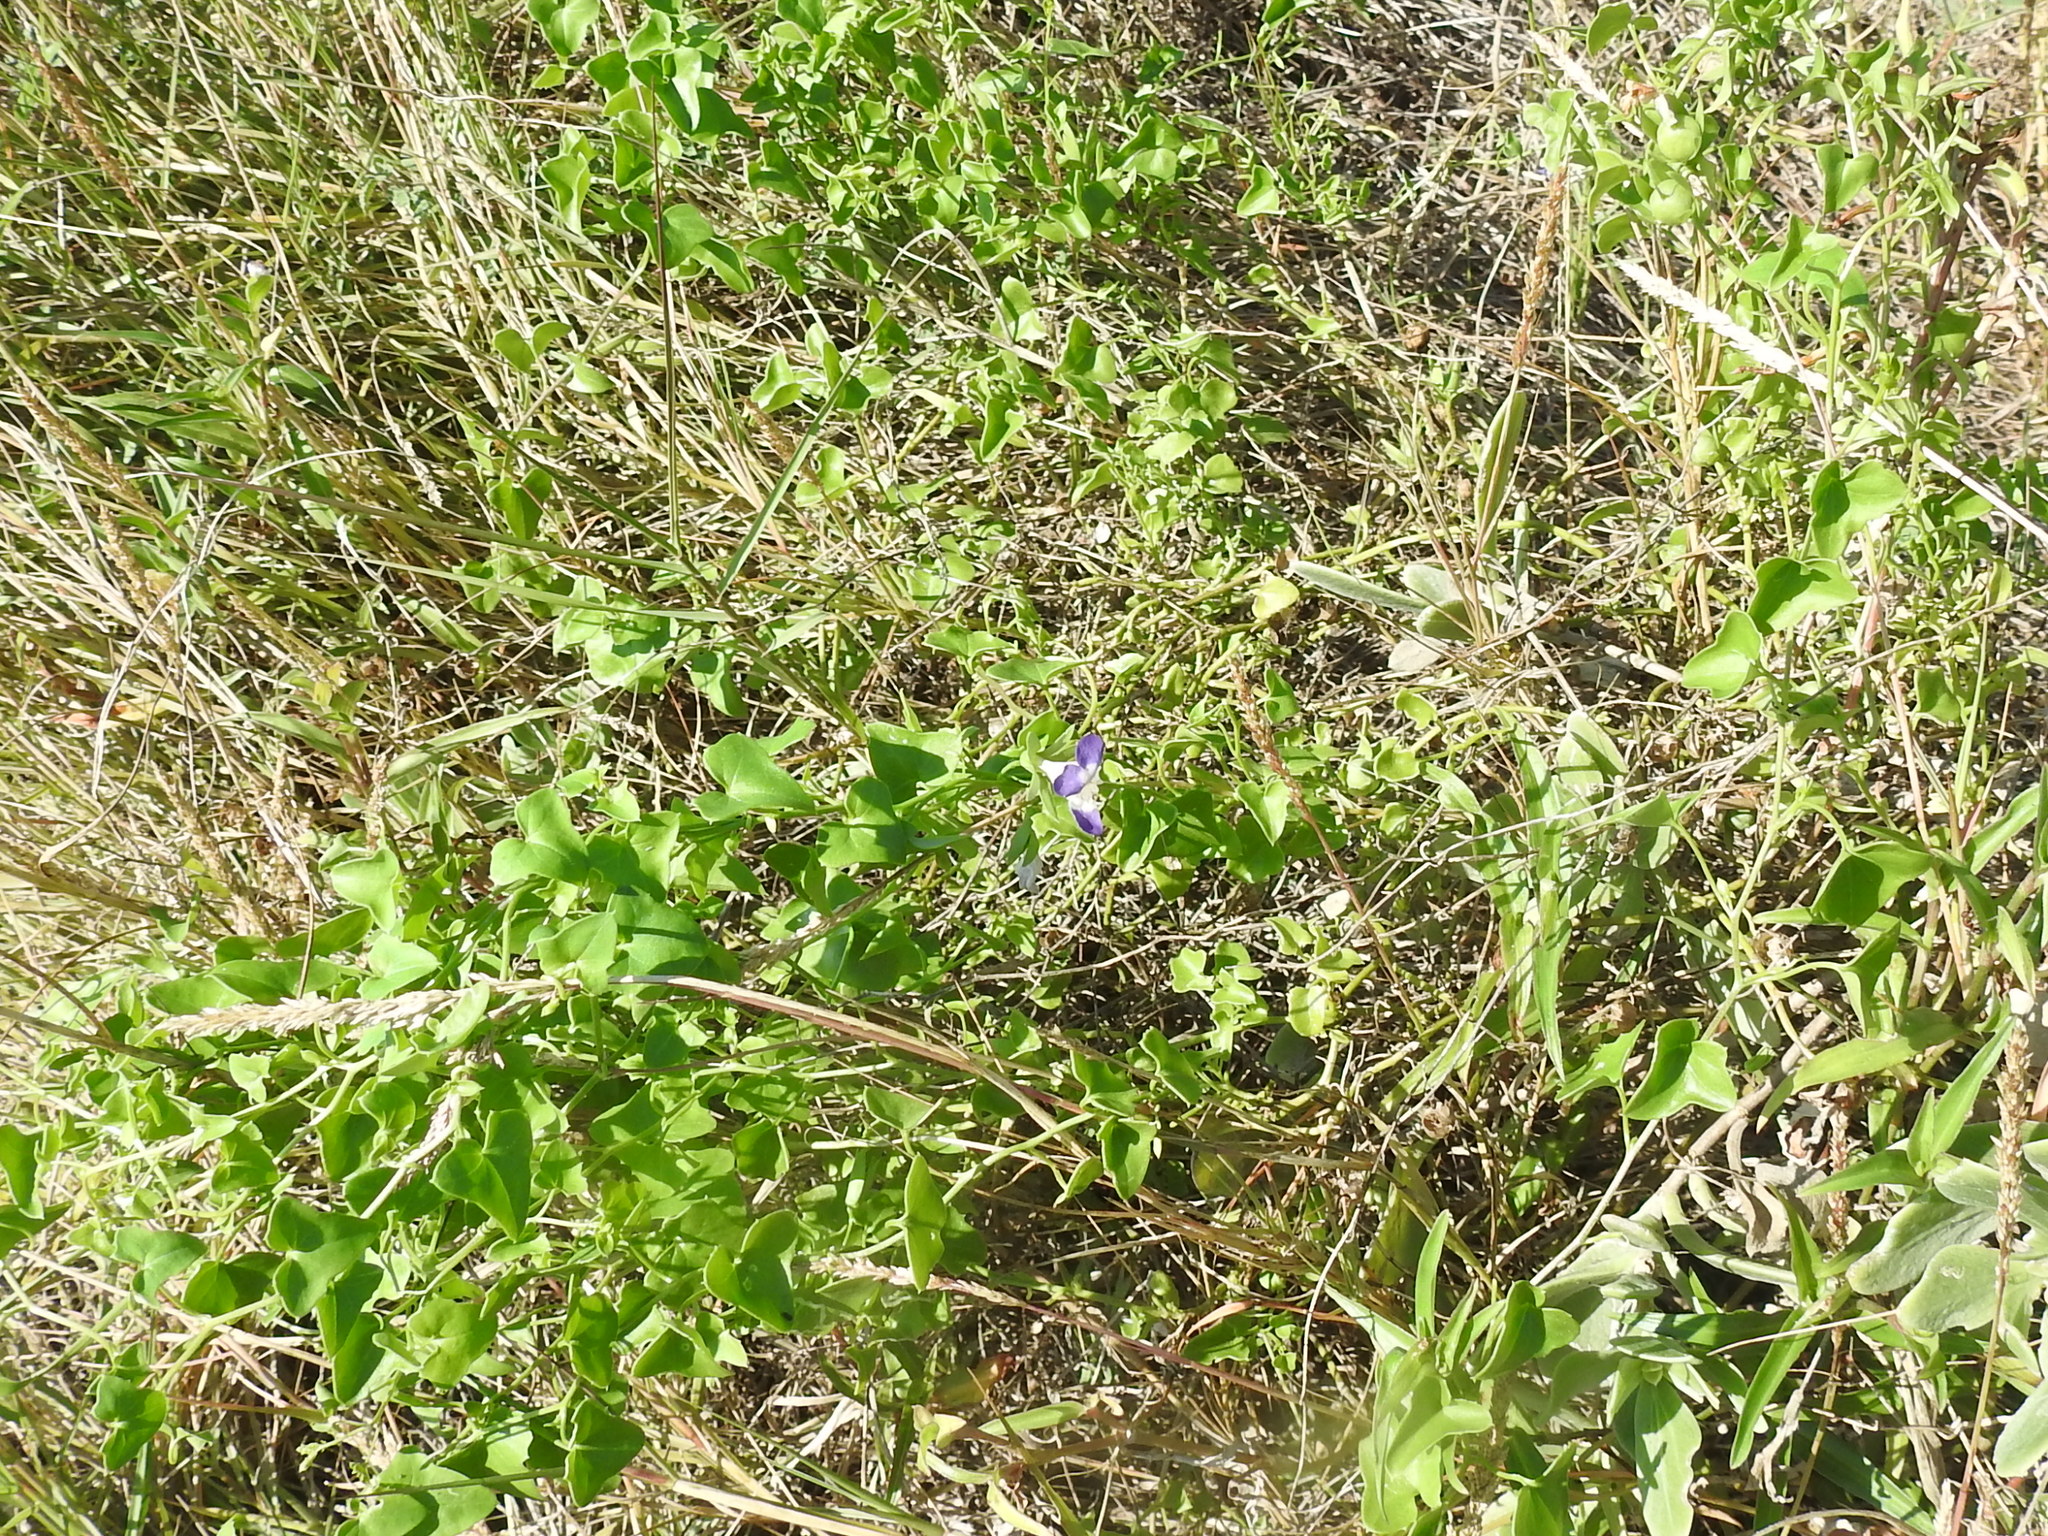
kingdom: Plantae
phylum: Tracheophyta
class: Magnoliopsida
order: Lamiales
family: Plantaginaceae
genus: Maurandella
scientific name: Maurandella antirrhiniflora
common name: Violet twining-snapdragon
